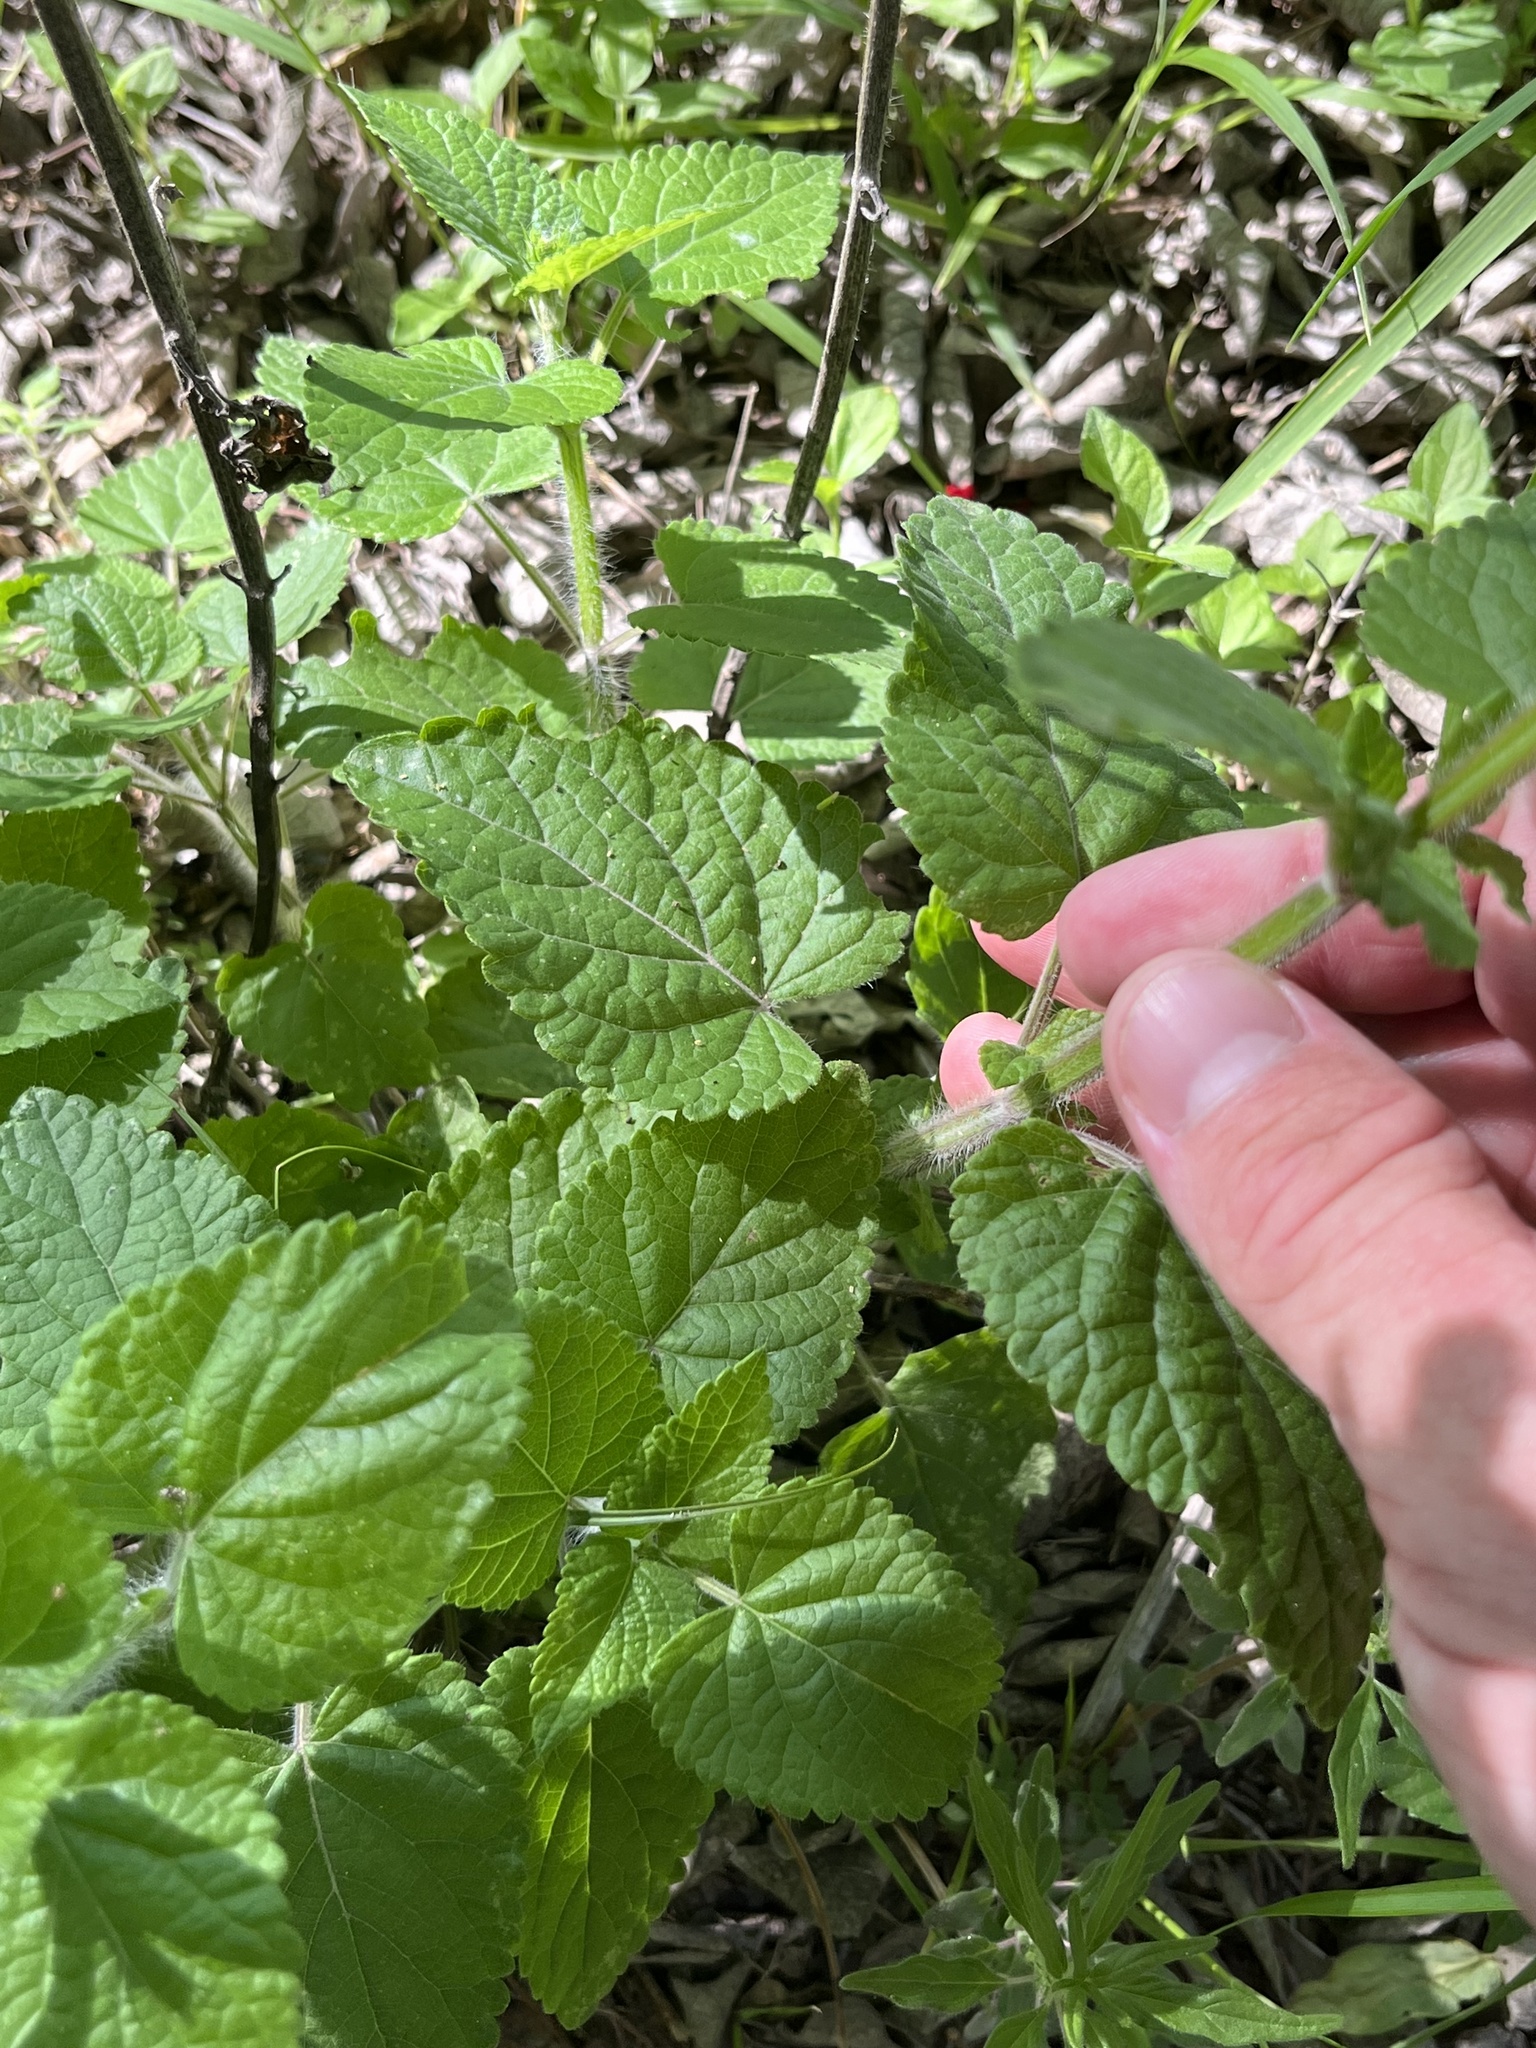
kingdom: Plantae
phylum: Tracheophyta
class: Magnoliopsida
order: Lamiales
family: Lamiaceae
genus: Salvia
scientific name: Salvia coccinea
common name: Blood sage
